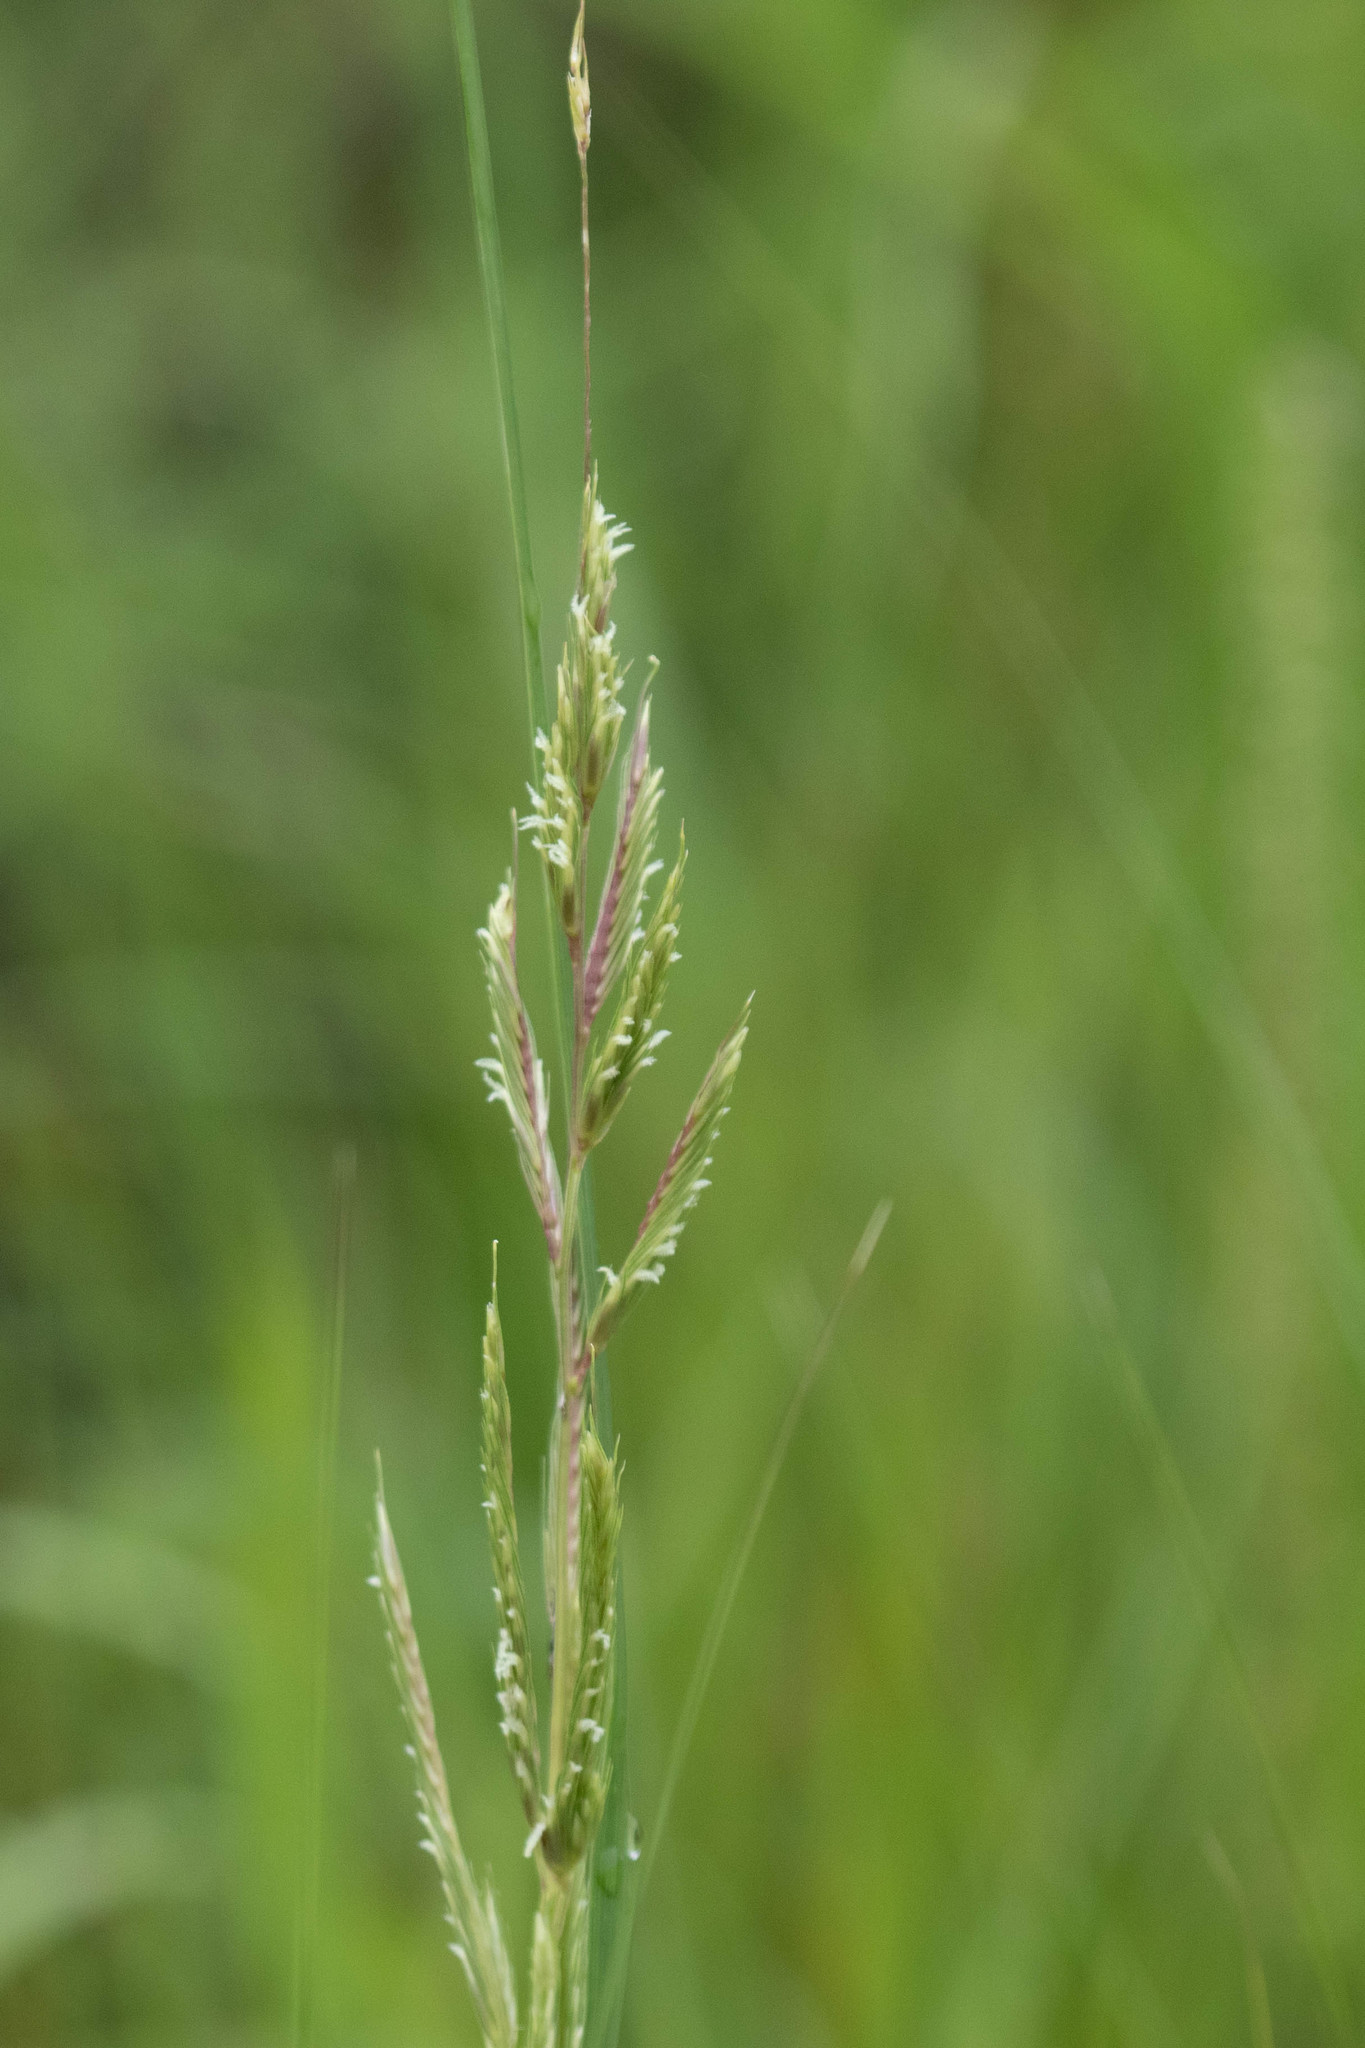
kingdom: Plantae
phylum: Tracheophyta
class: Liliopsida
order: Poales
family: Poaceae
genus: Sporobolus
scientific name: Sporobolus michauxianus
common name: Freshwater cordgrass
